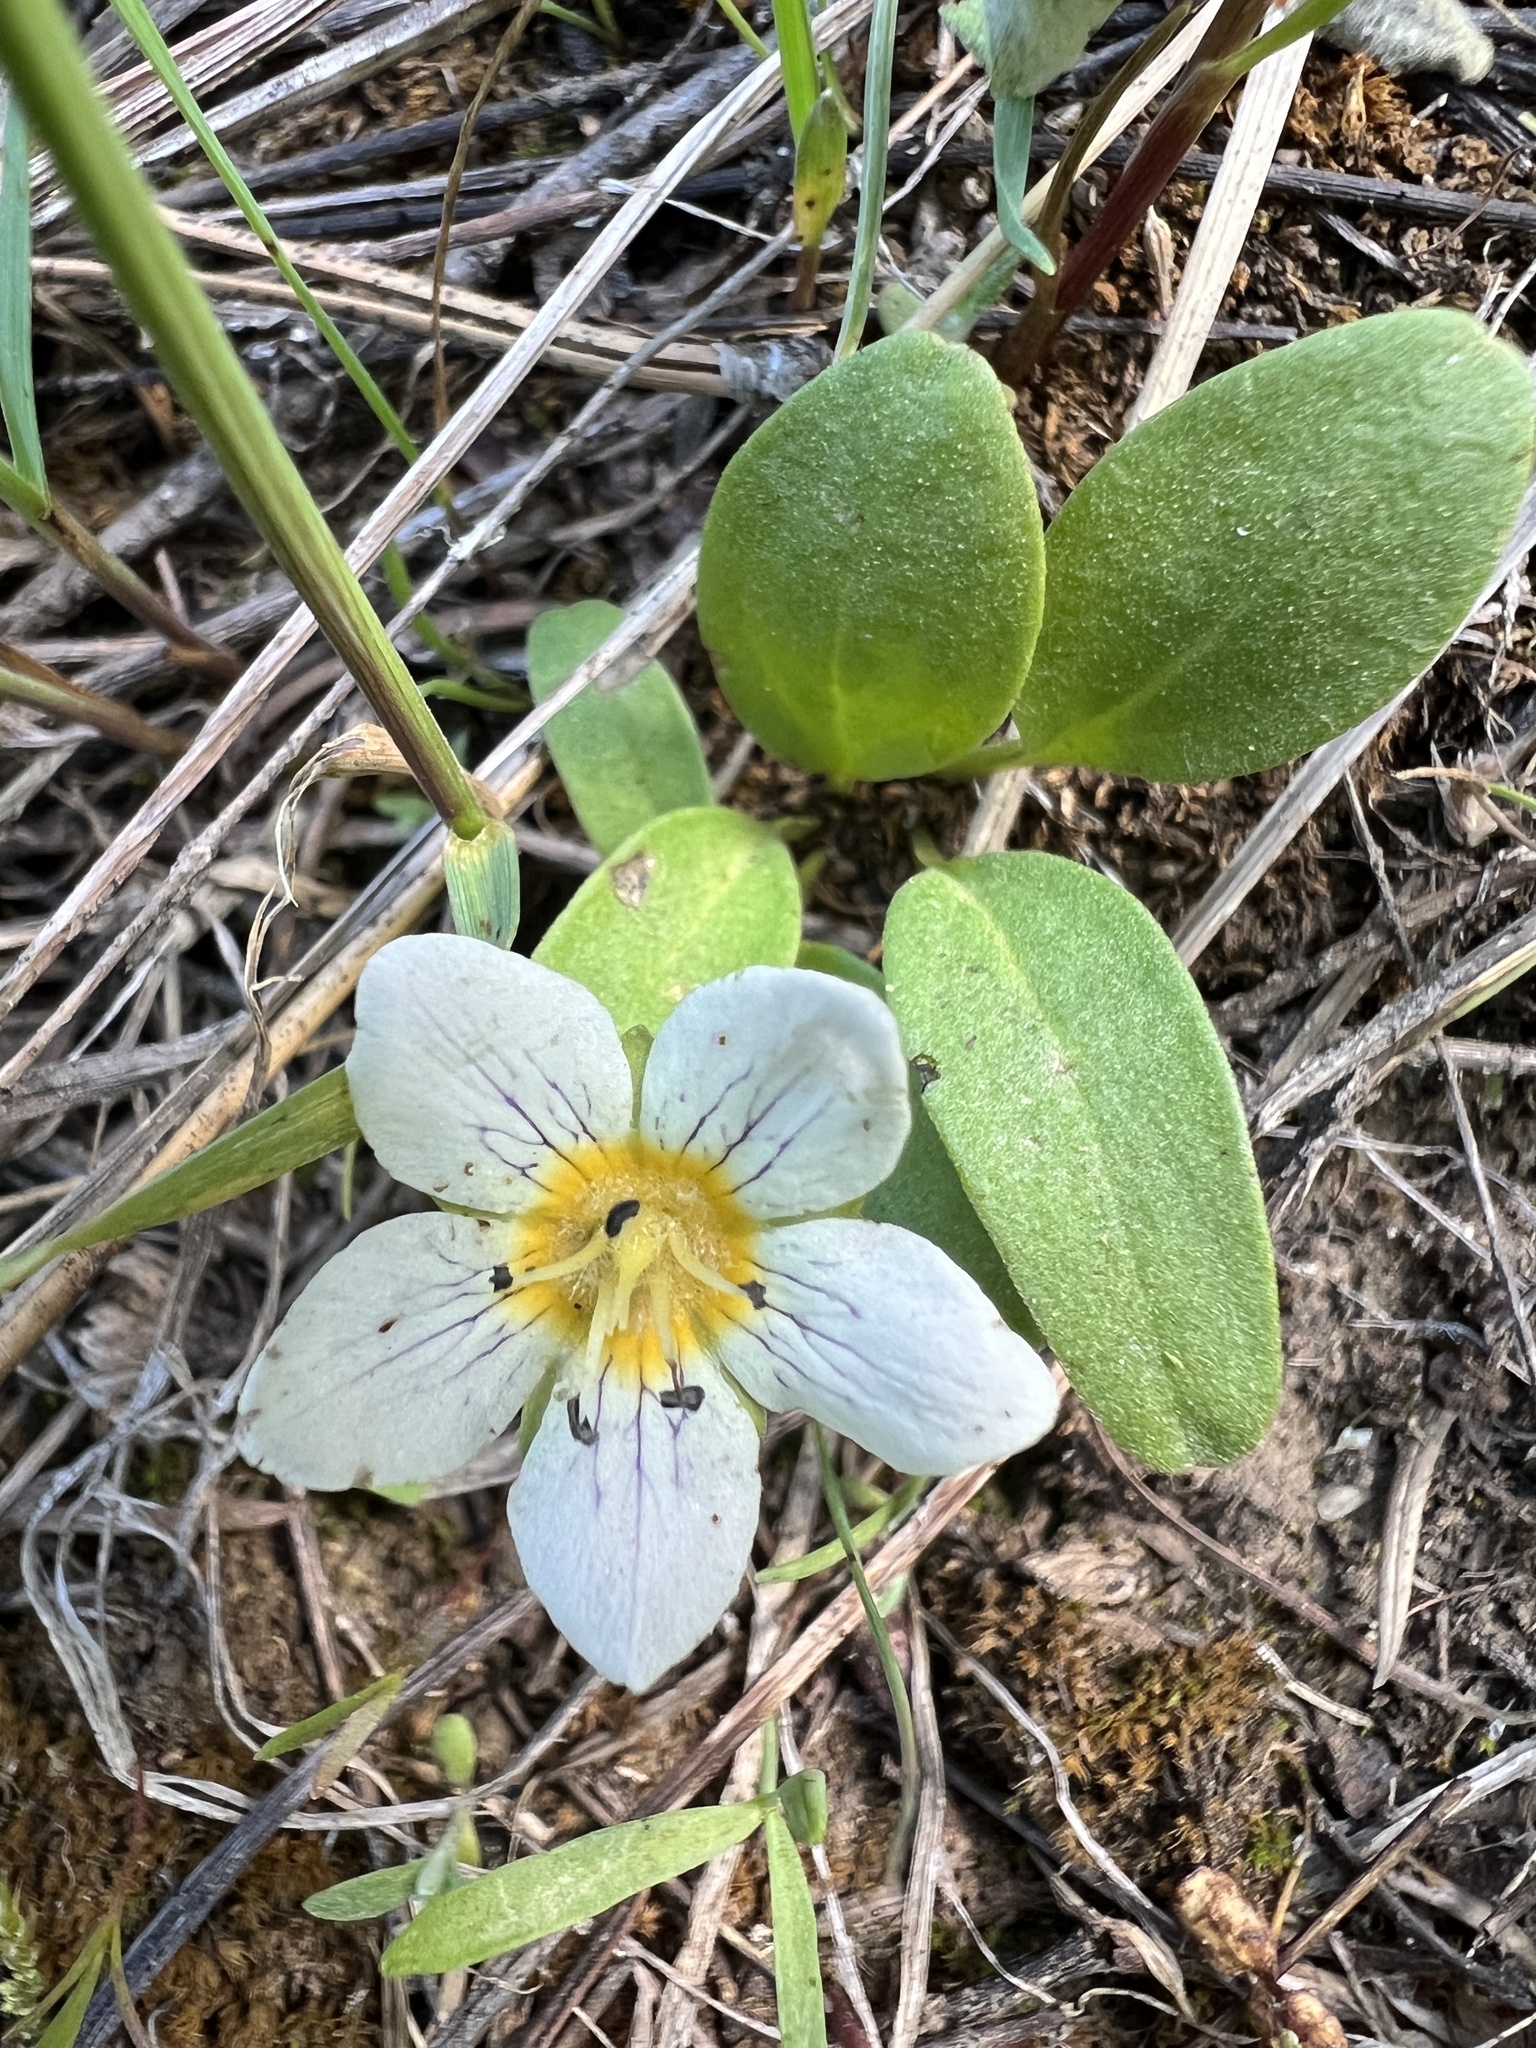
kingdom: Plantae
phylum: Tracheophyta
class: Magnoliopsida
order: Boraginales
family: Hydrophyllaceae
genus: Hesperochiron
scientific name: Hesperochiron pumilus
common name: Dwarf hesperochiron
